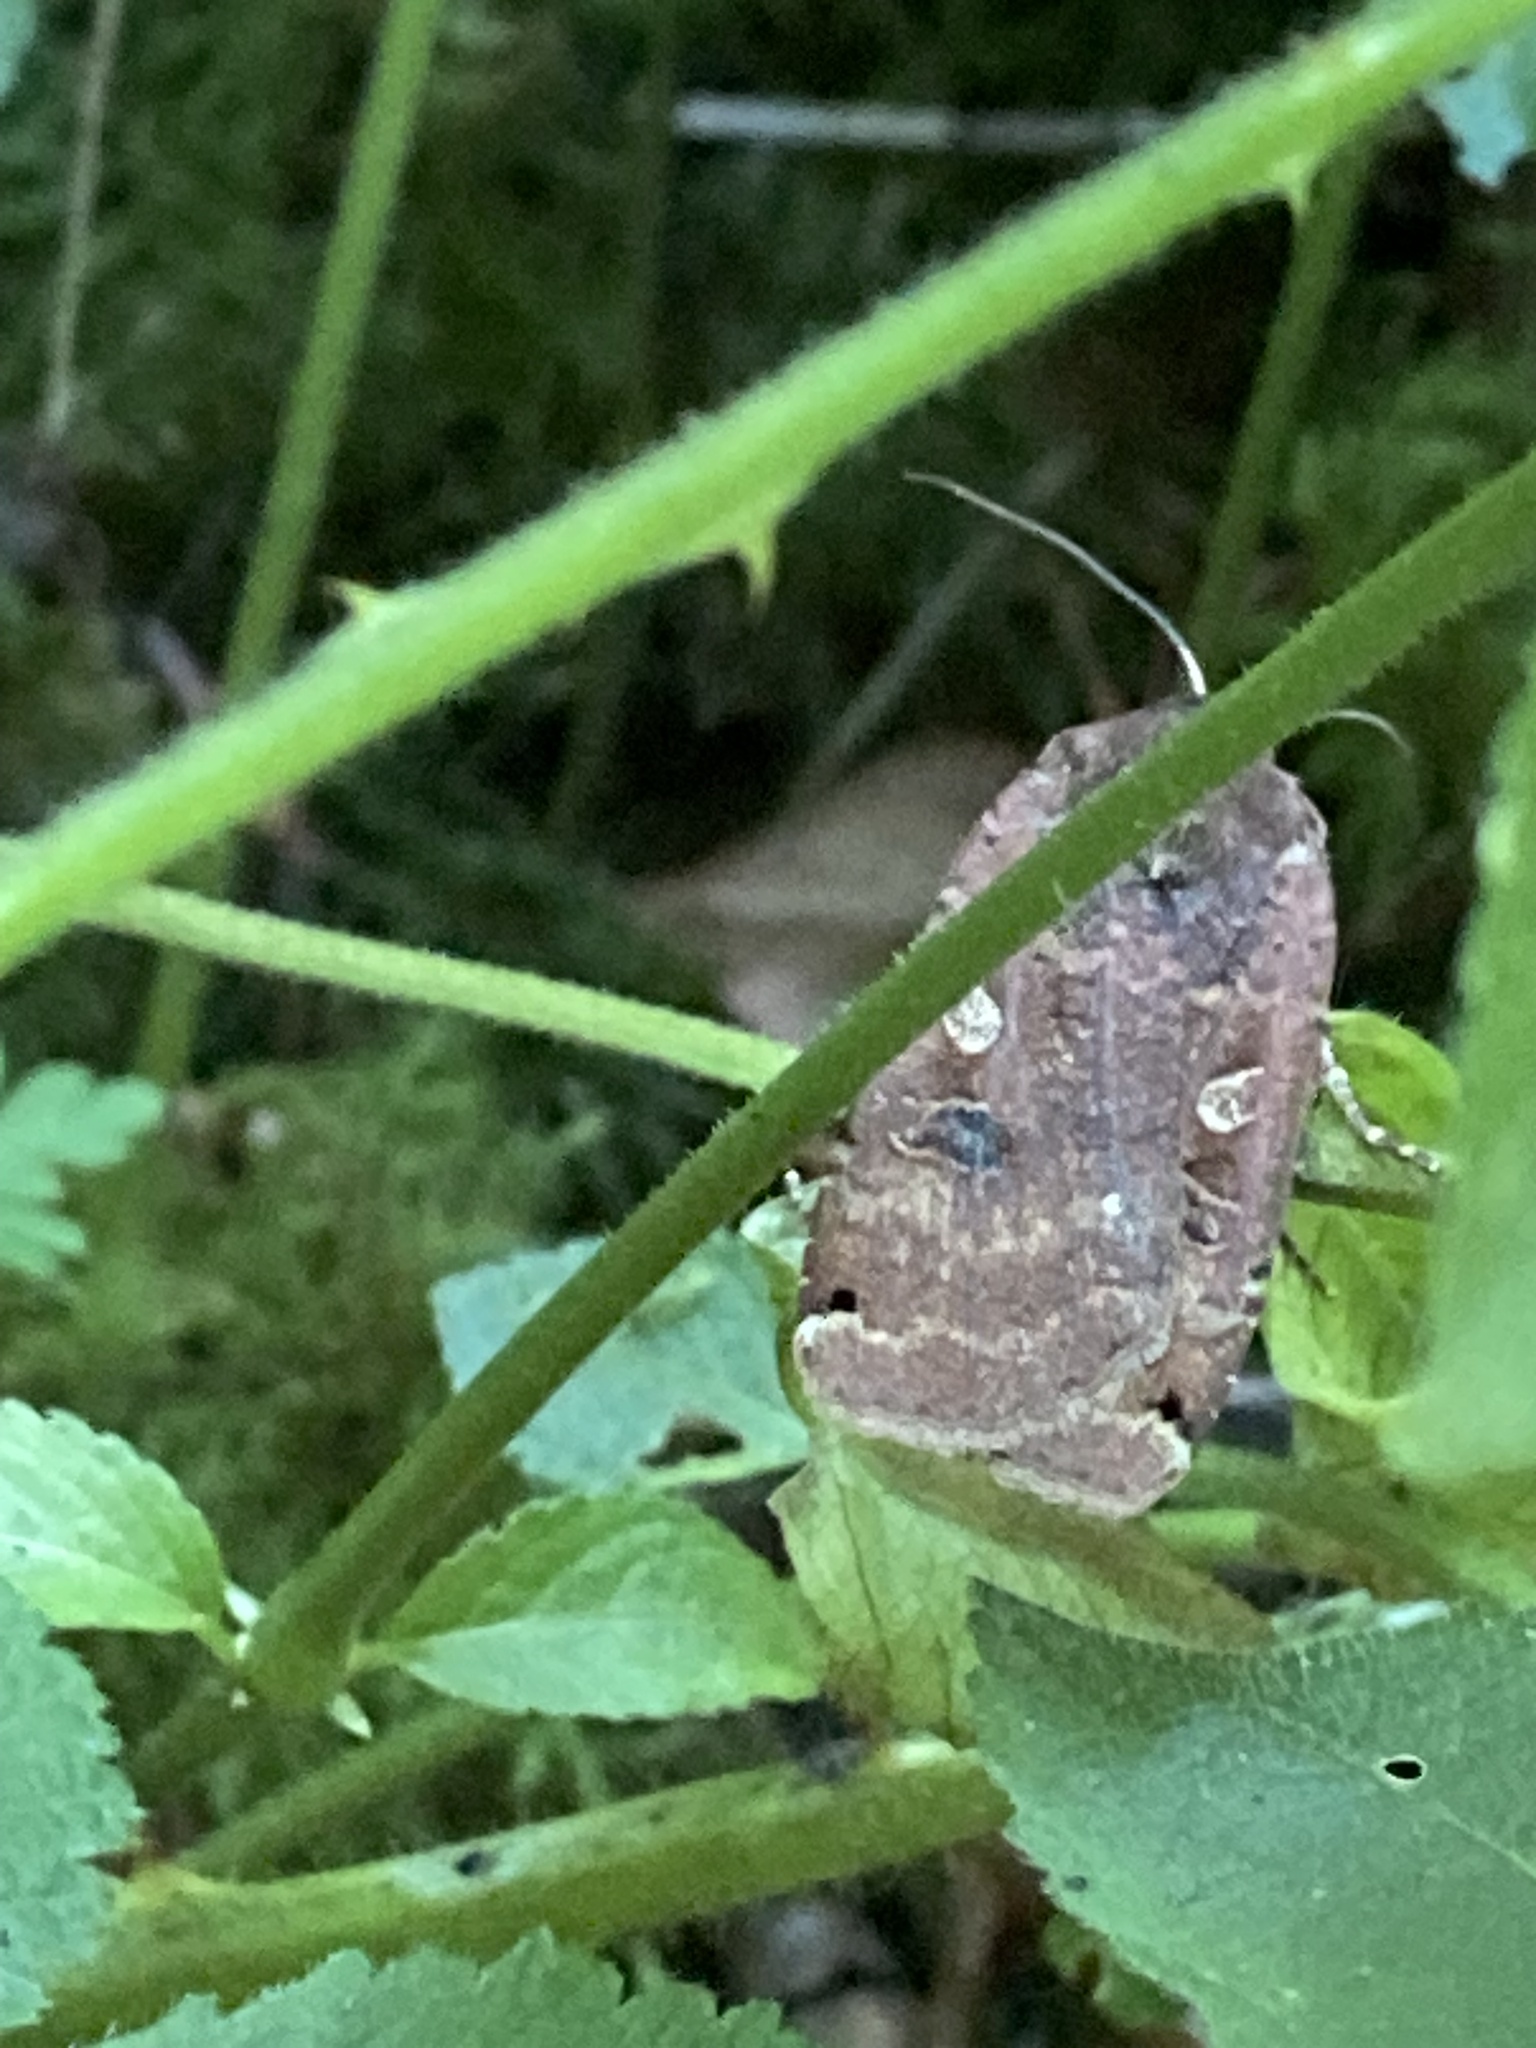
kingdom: Animalia
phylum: Arthropoda
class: Insecta
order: Lepidoptera
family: Noctuidae
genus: Noctua
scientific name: Noctua pronuba
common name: Large yellow underwing
